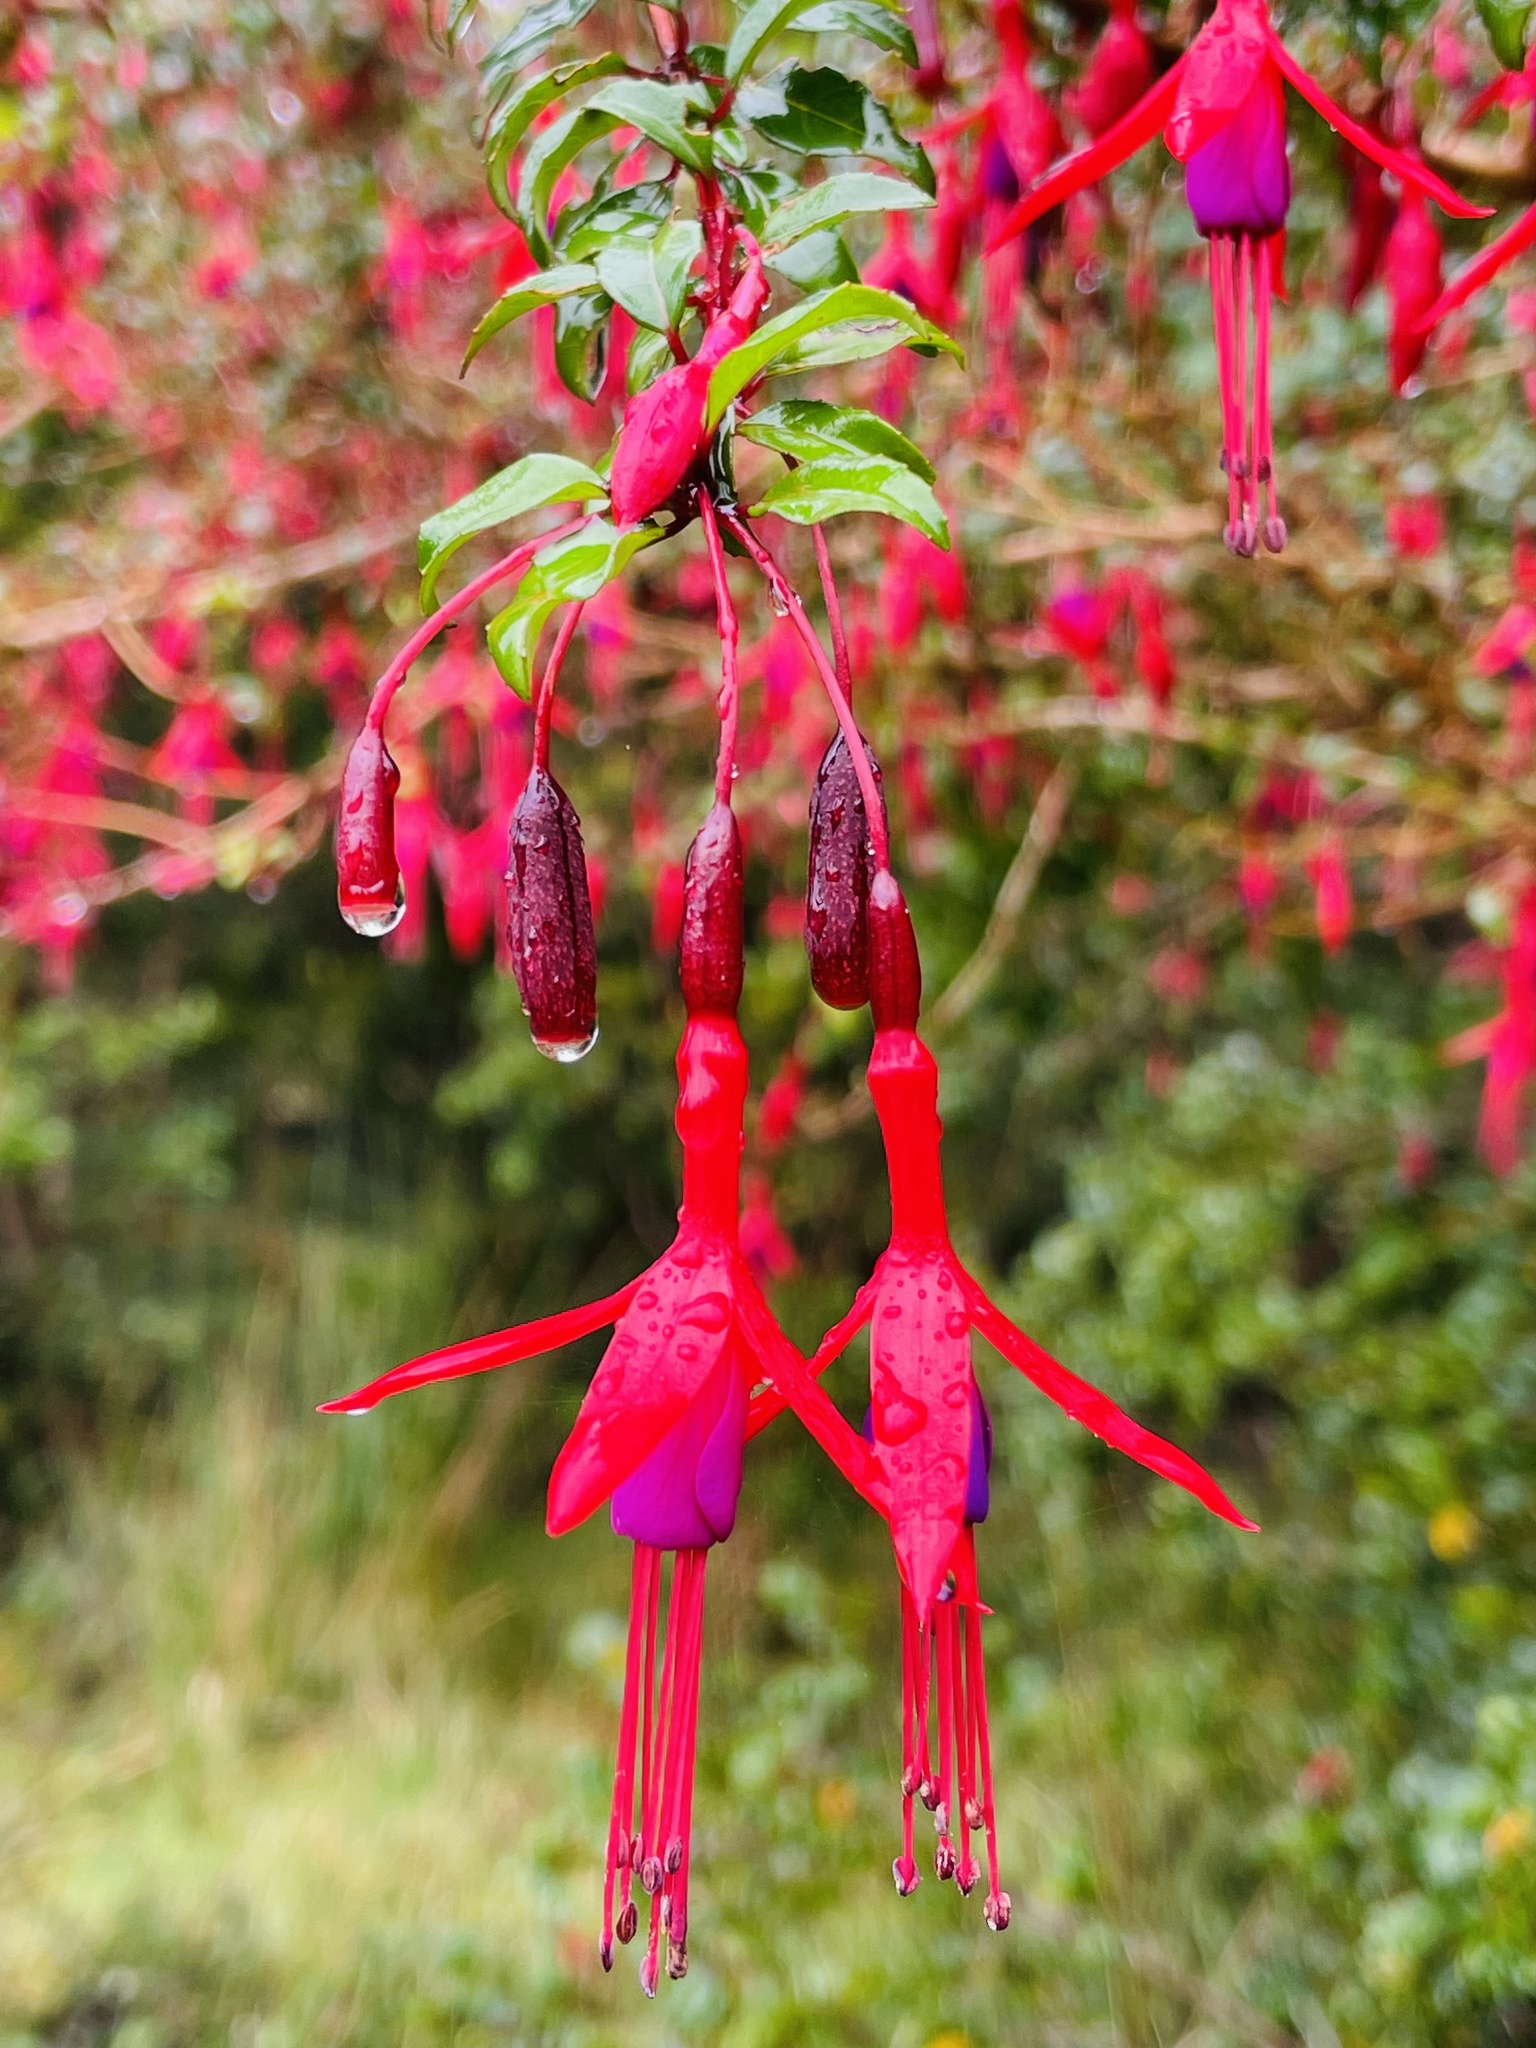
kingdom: Plantae
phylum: Tracheophyta
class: Magnoliopsida
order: Myrtales
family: Onagraceae
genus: Fuchsia
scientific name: Fuchsia magellanica
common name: Hardy fuchsia
